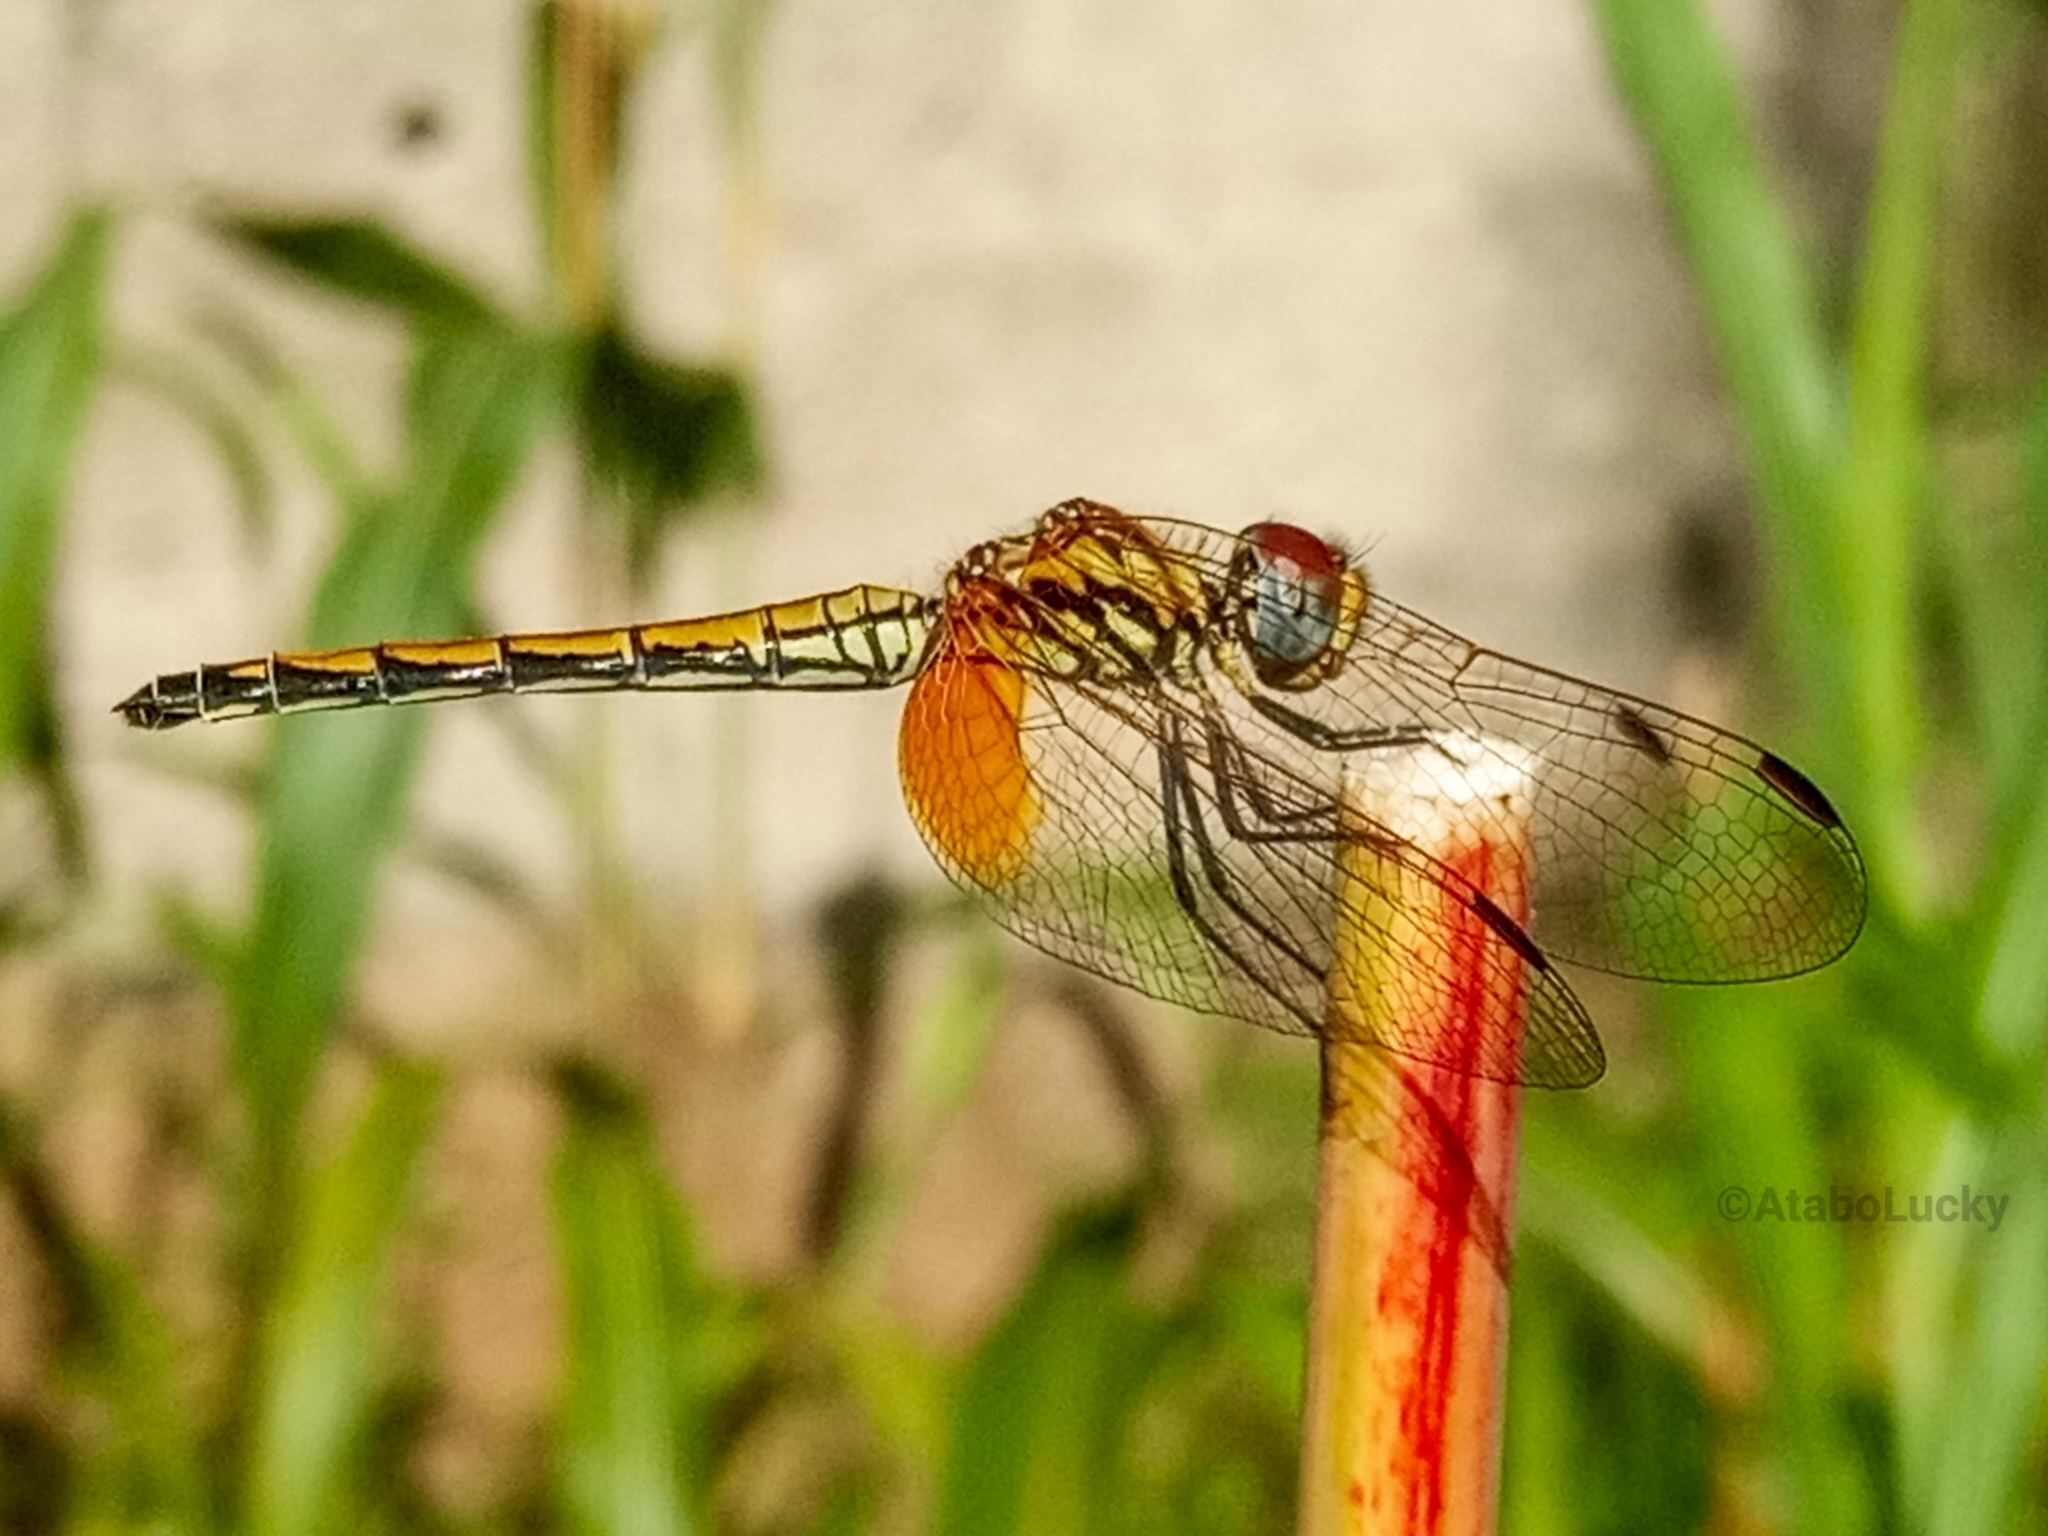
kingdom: Animalia
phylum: Arthropoda
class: Insecta
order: Odonata
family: Libellulidae
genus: Trithemis
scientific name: Trithemis arteriosa
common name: Red-veined dropwing
